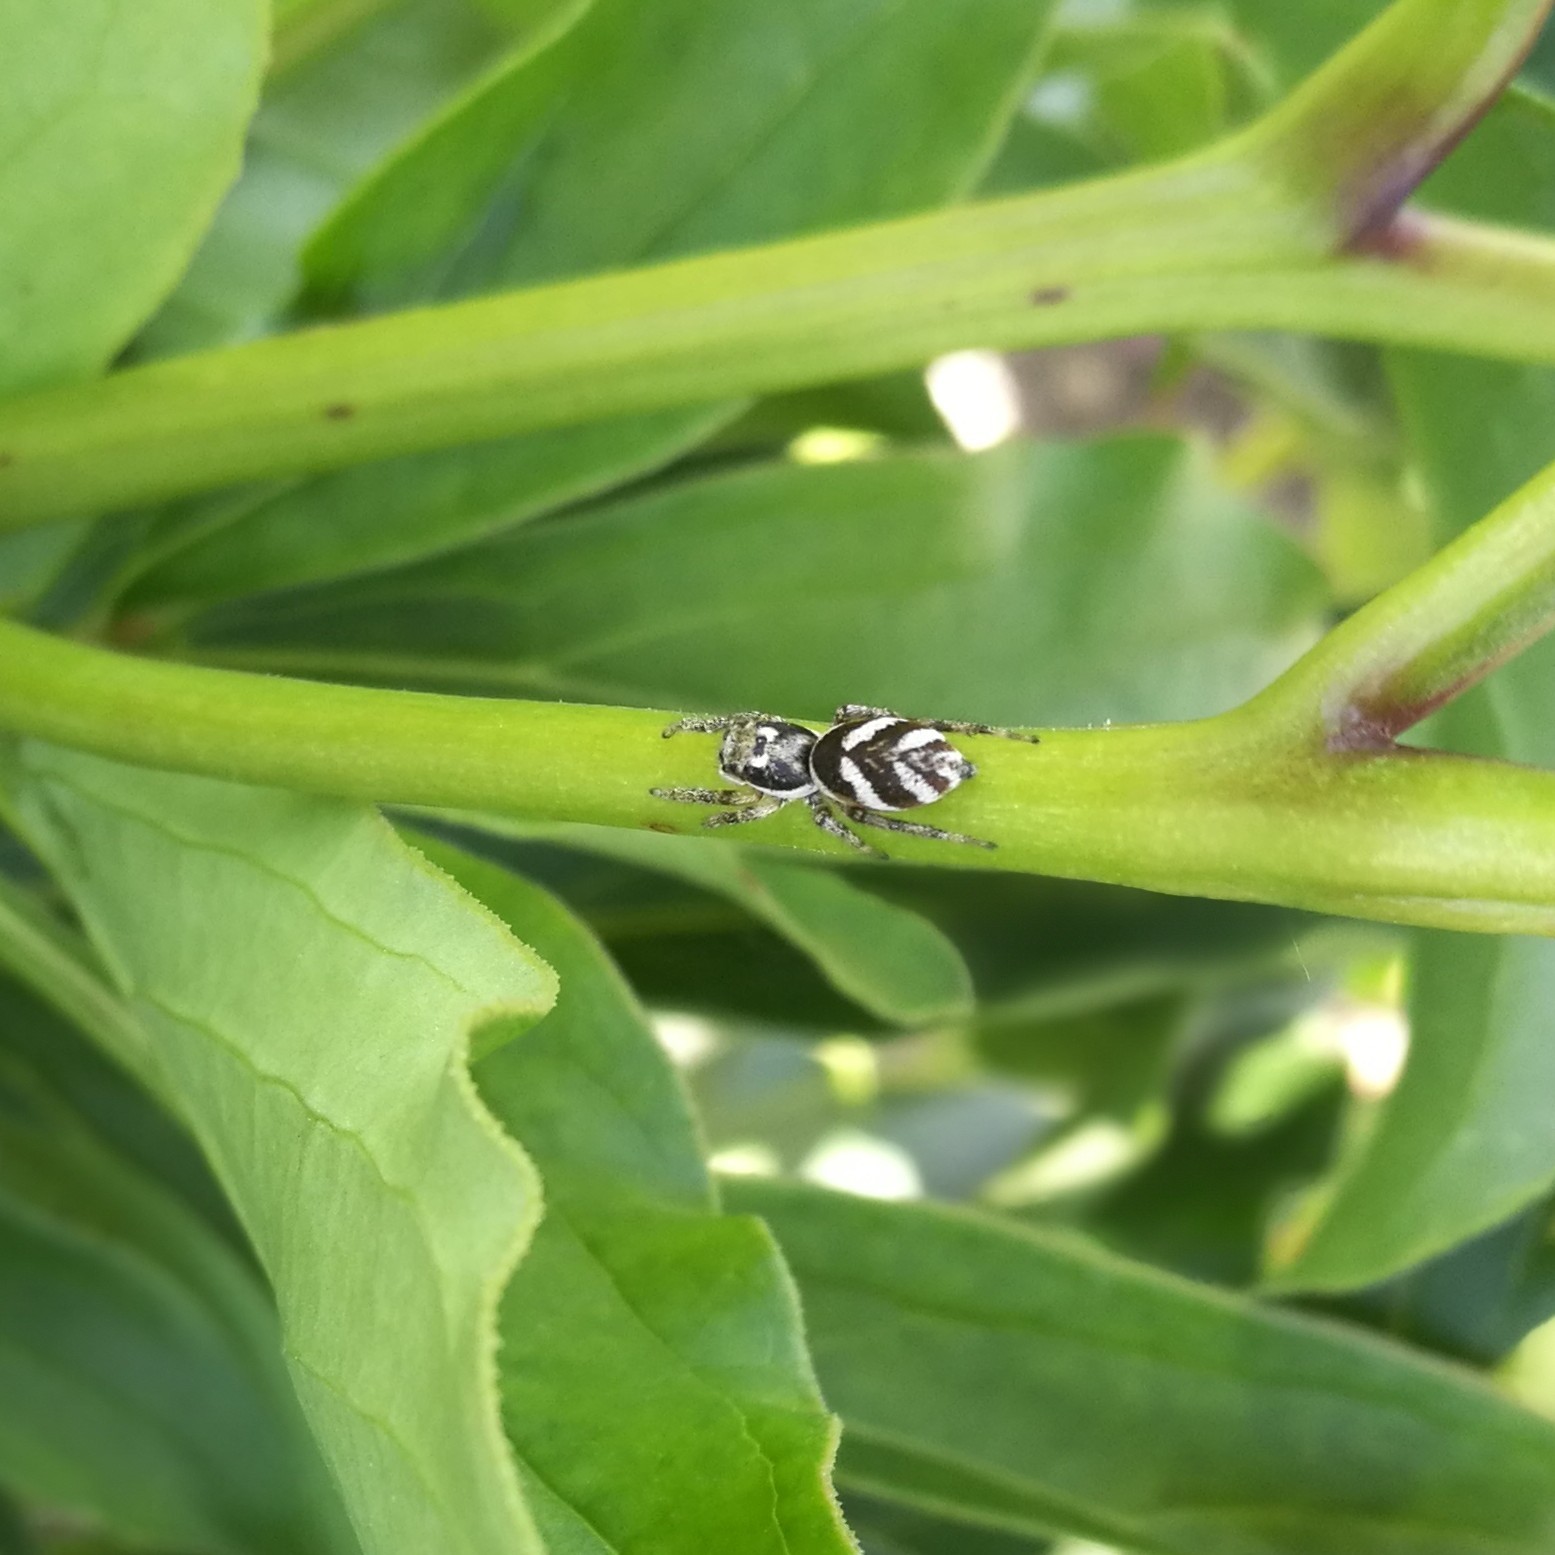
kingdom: Animalia
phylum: Arthropoda
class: Arachnida
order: Araneae
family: Salticidae
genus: Salticus
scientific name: Salticus scenicus
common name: Zebra jumper
